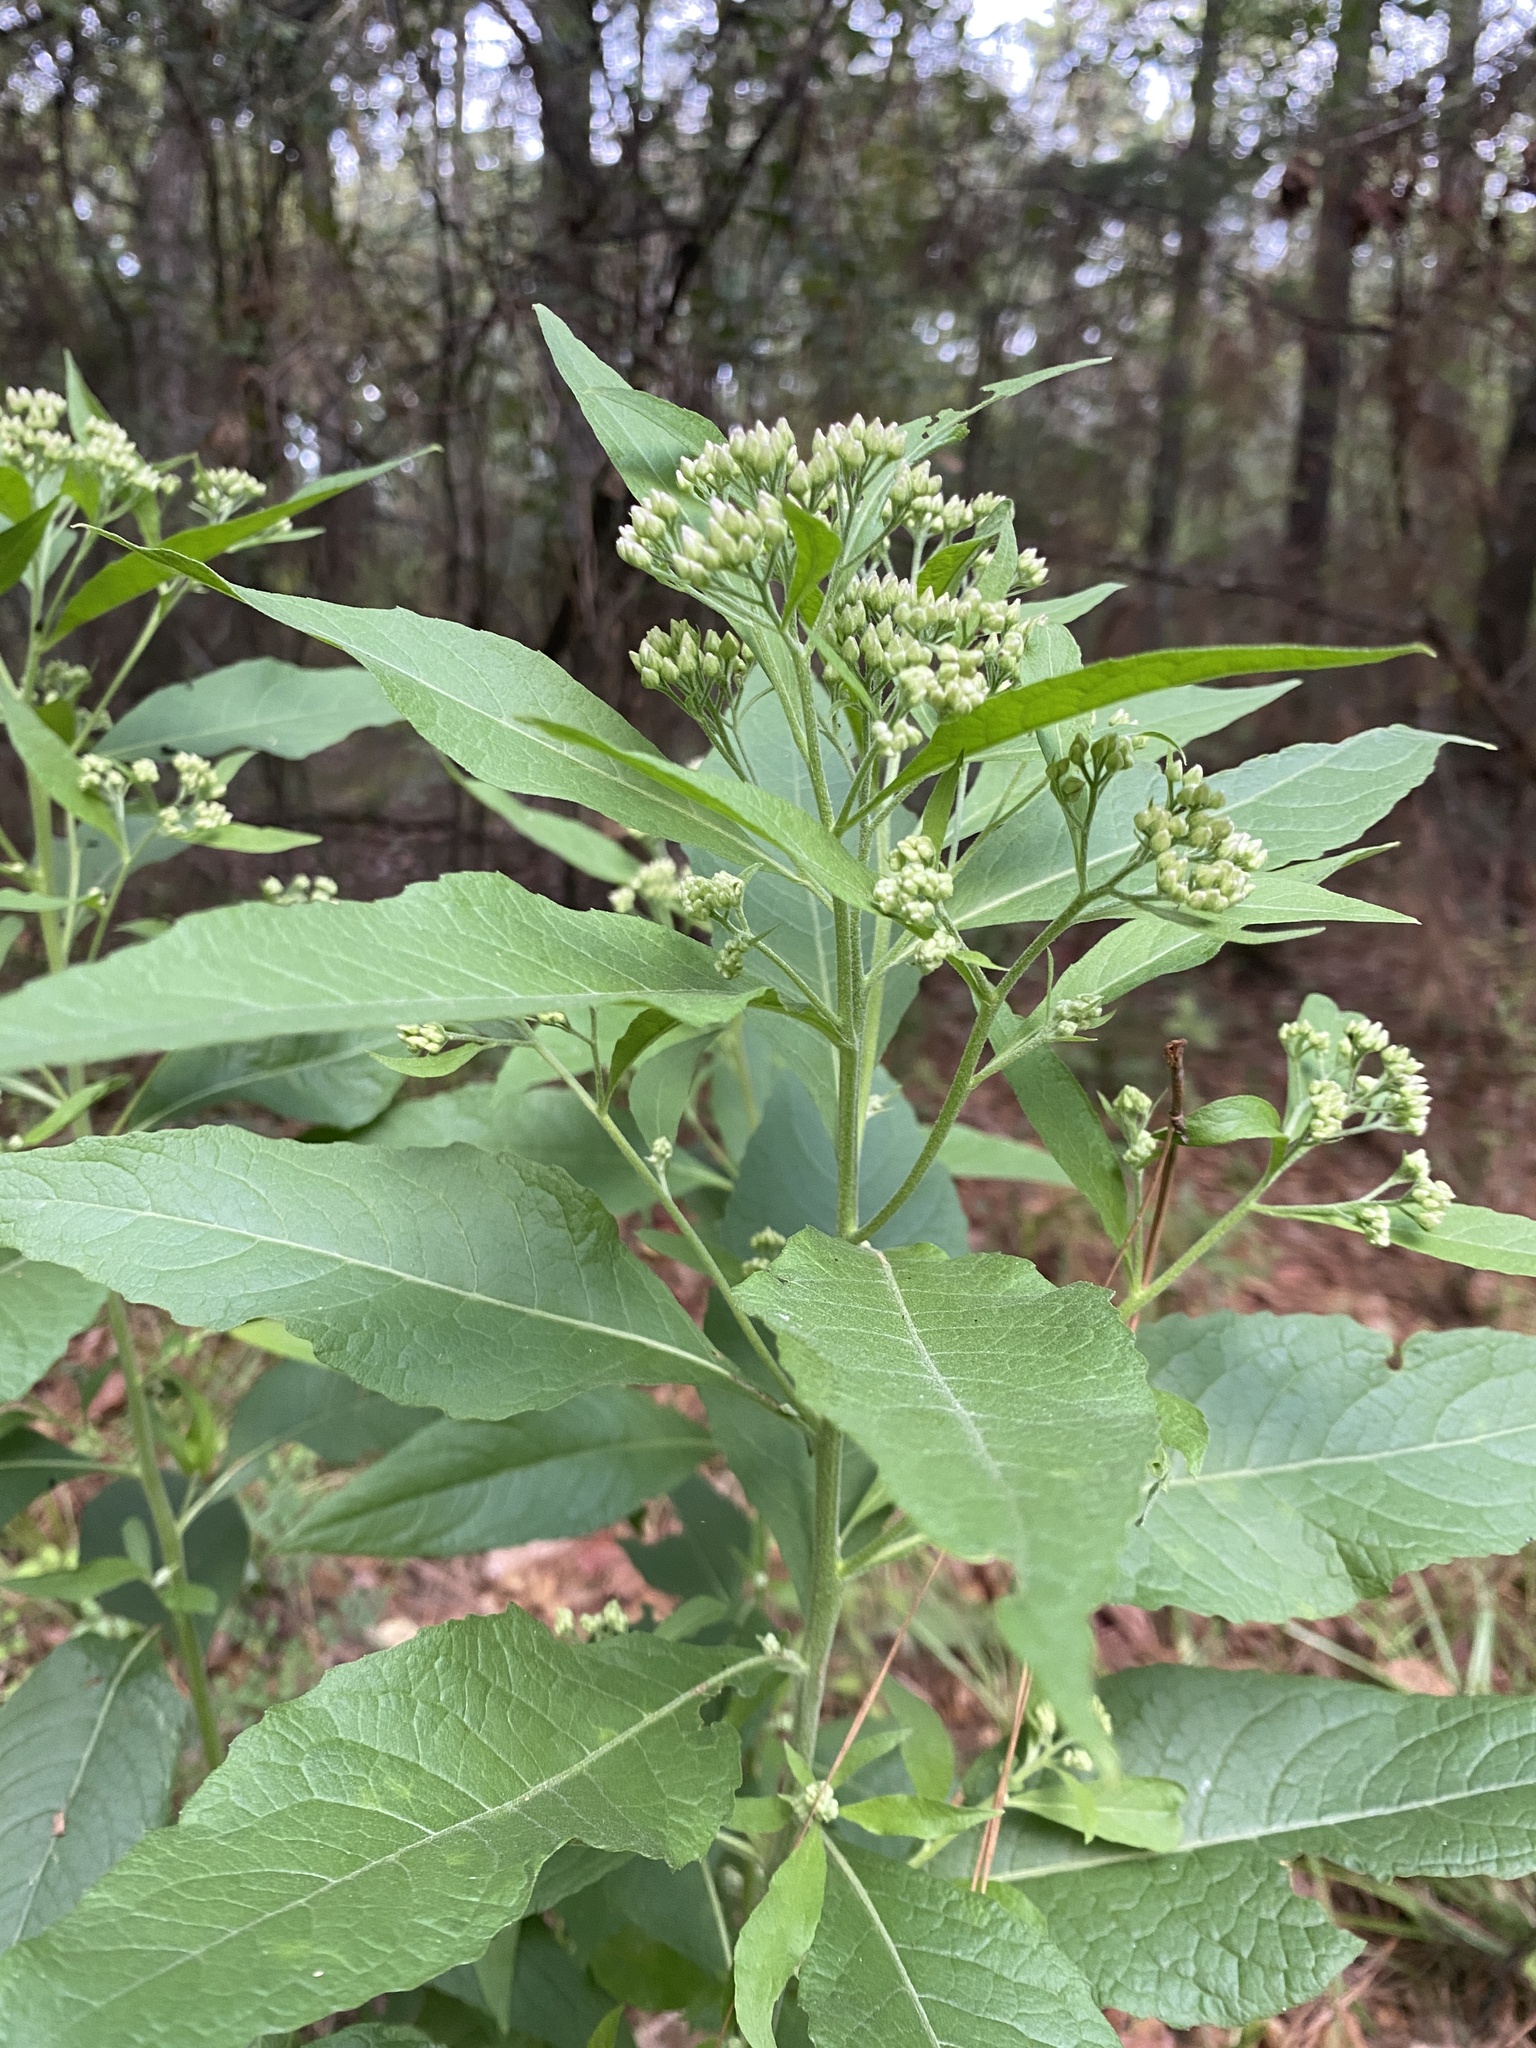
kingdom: Plantae
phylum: Tracheophyta
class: Magnoliopsida
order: Asterales
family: Asteraceae
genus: Pluchea
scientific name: Pluchea camphorata
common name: Camphor pluchea
